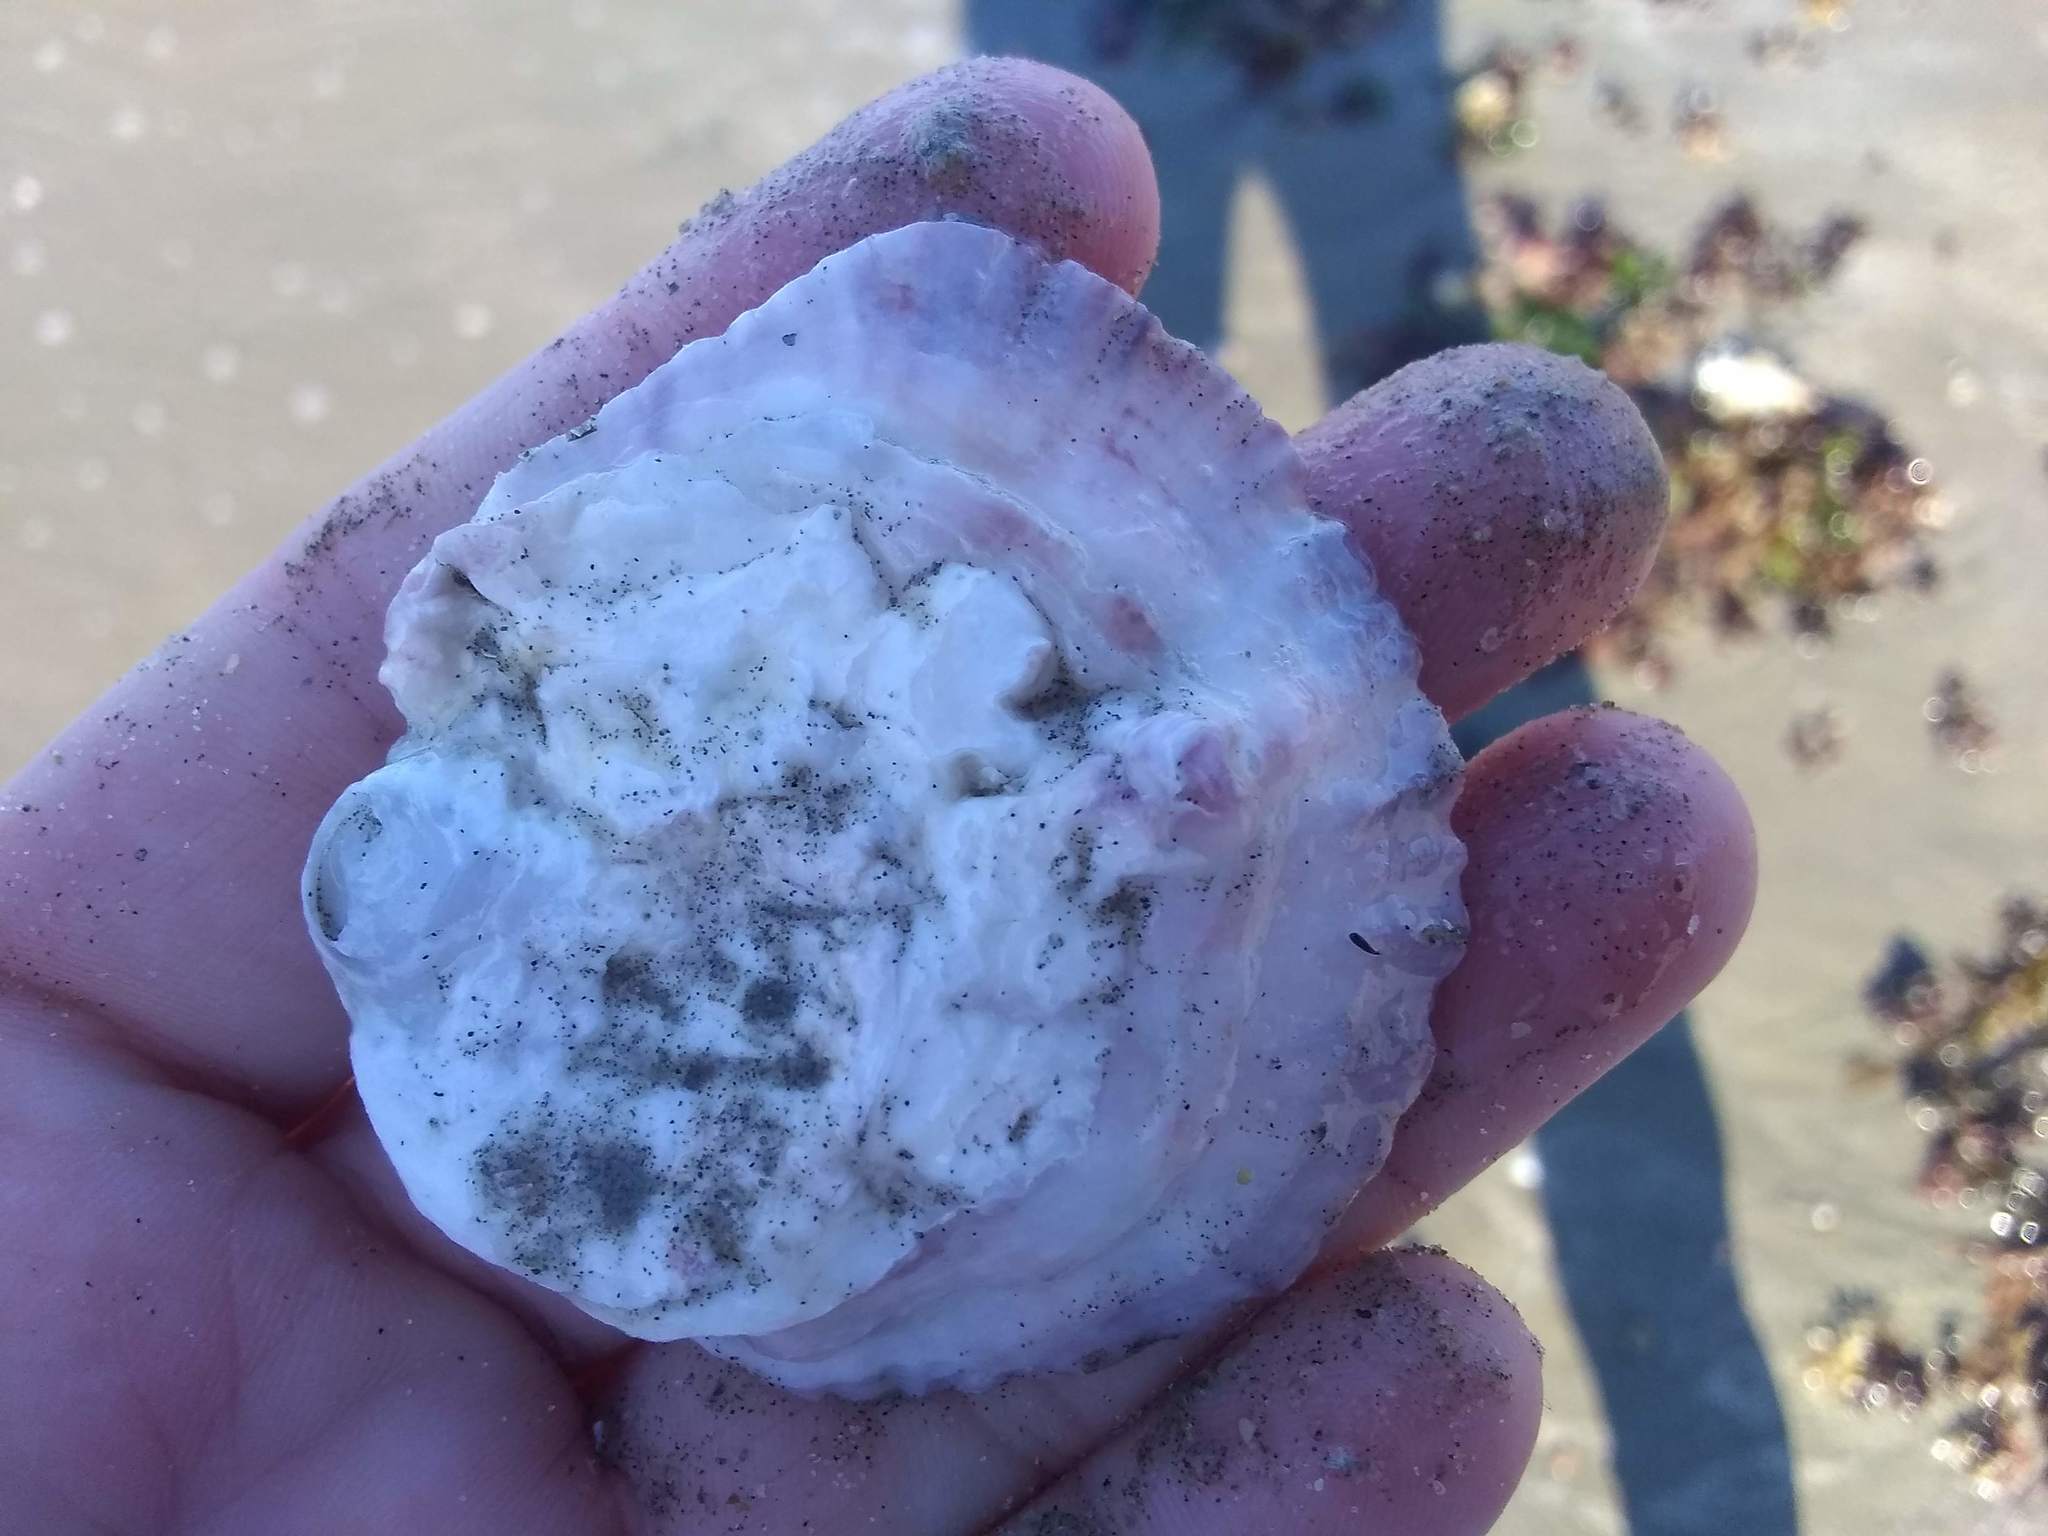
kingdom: Animalia
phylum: Mollusca
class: Bivalvia
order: Ostreida
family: Ostreidae
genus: Ostrea
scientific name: Ostrea edulis
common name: Flat oyster
